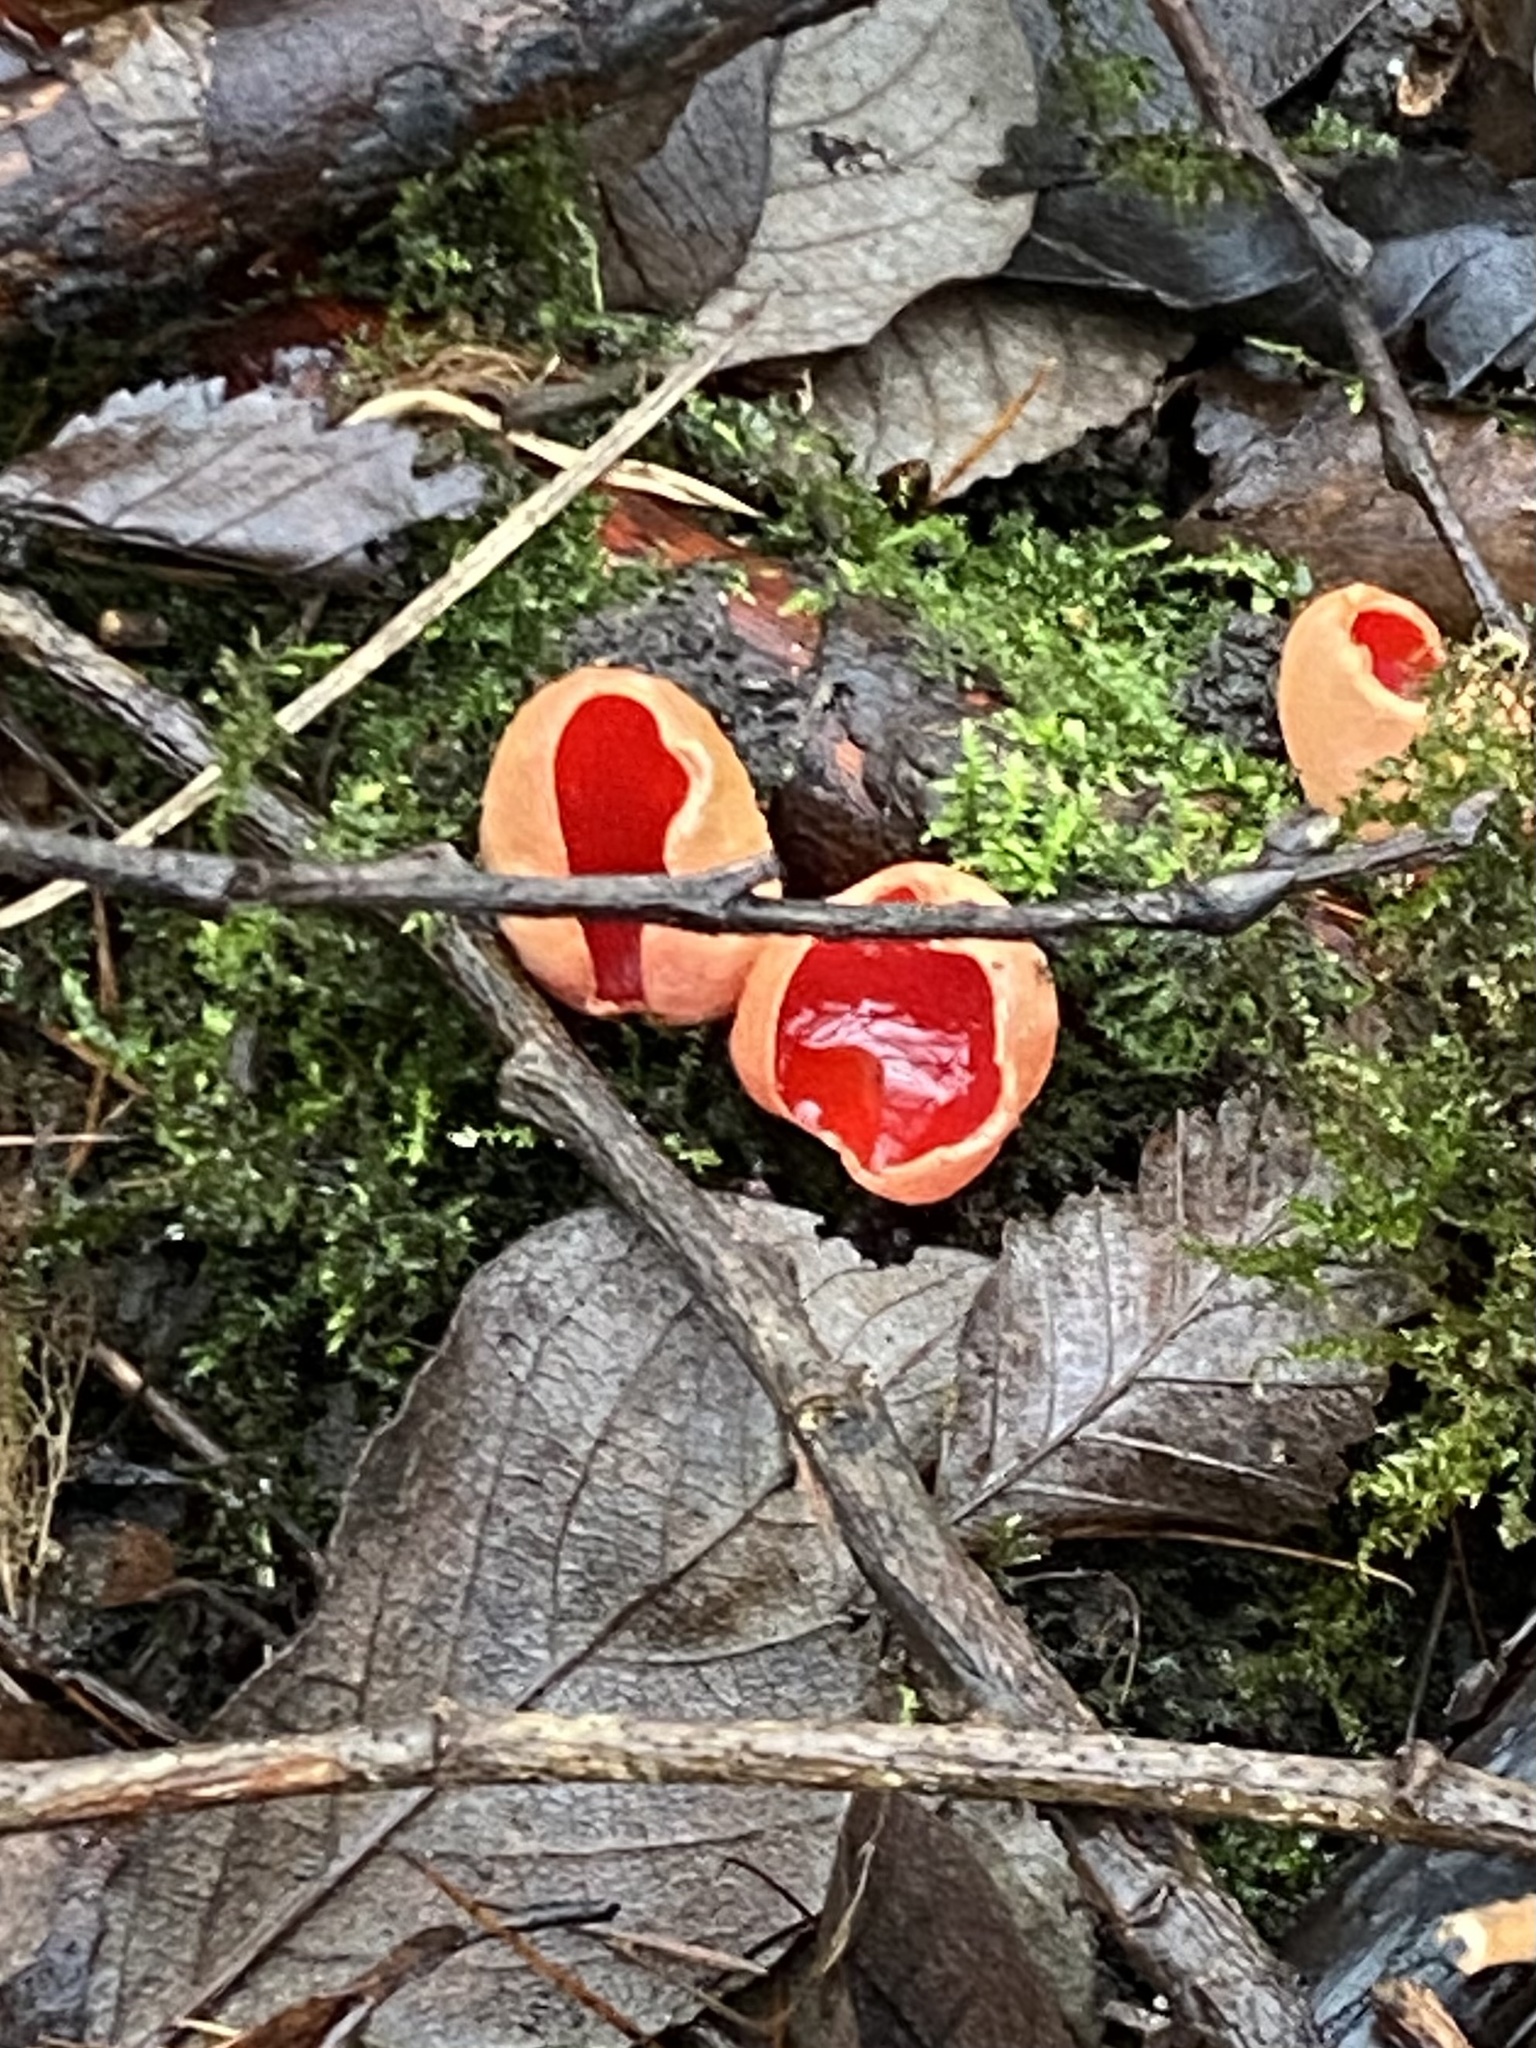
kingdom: Fungi
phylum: Ascomycota
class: Pezizomycetes
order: Pezizales
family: Sarcoscyphaceae
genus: Sarcoscypha
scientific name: Sarcoscypha
